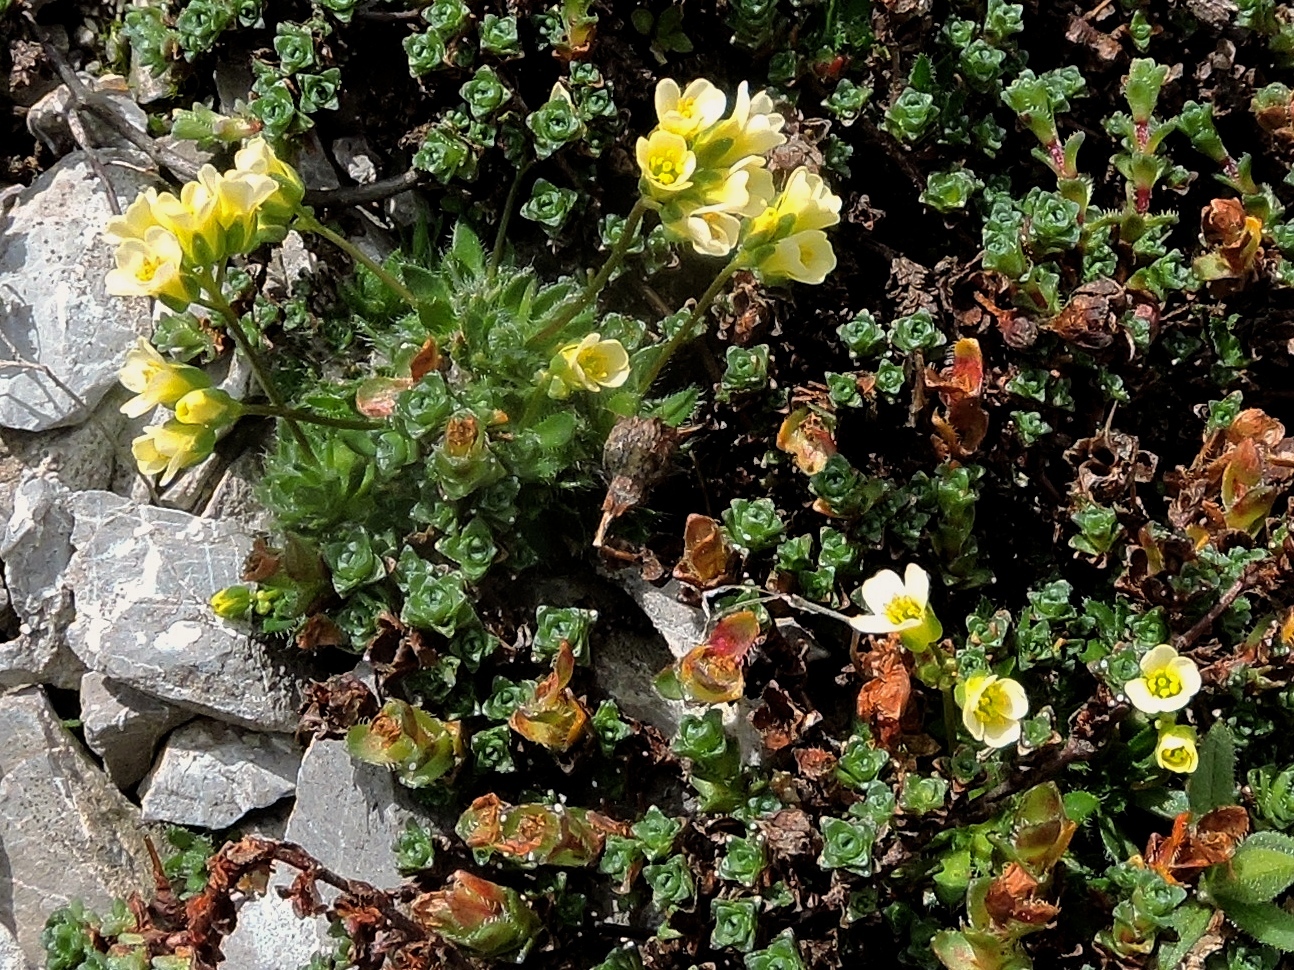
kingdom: Plantae
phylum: Tracheophyta
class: Magnoliopsida
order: Brassicales
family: Brassicaceae
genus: Draba
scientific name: Draba ladina
